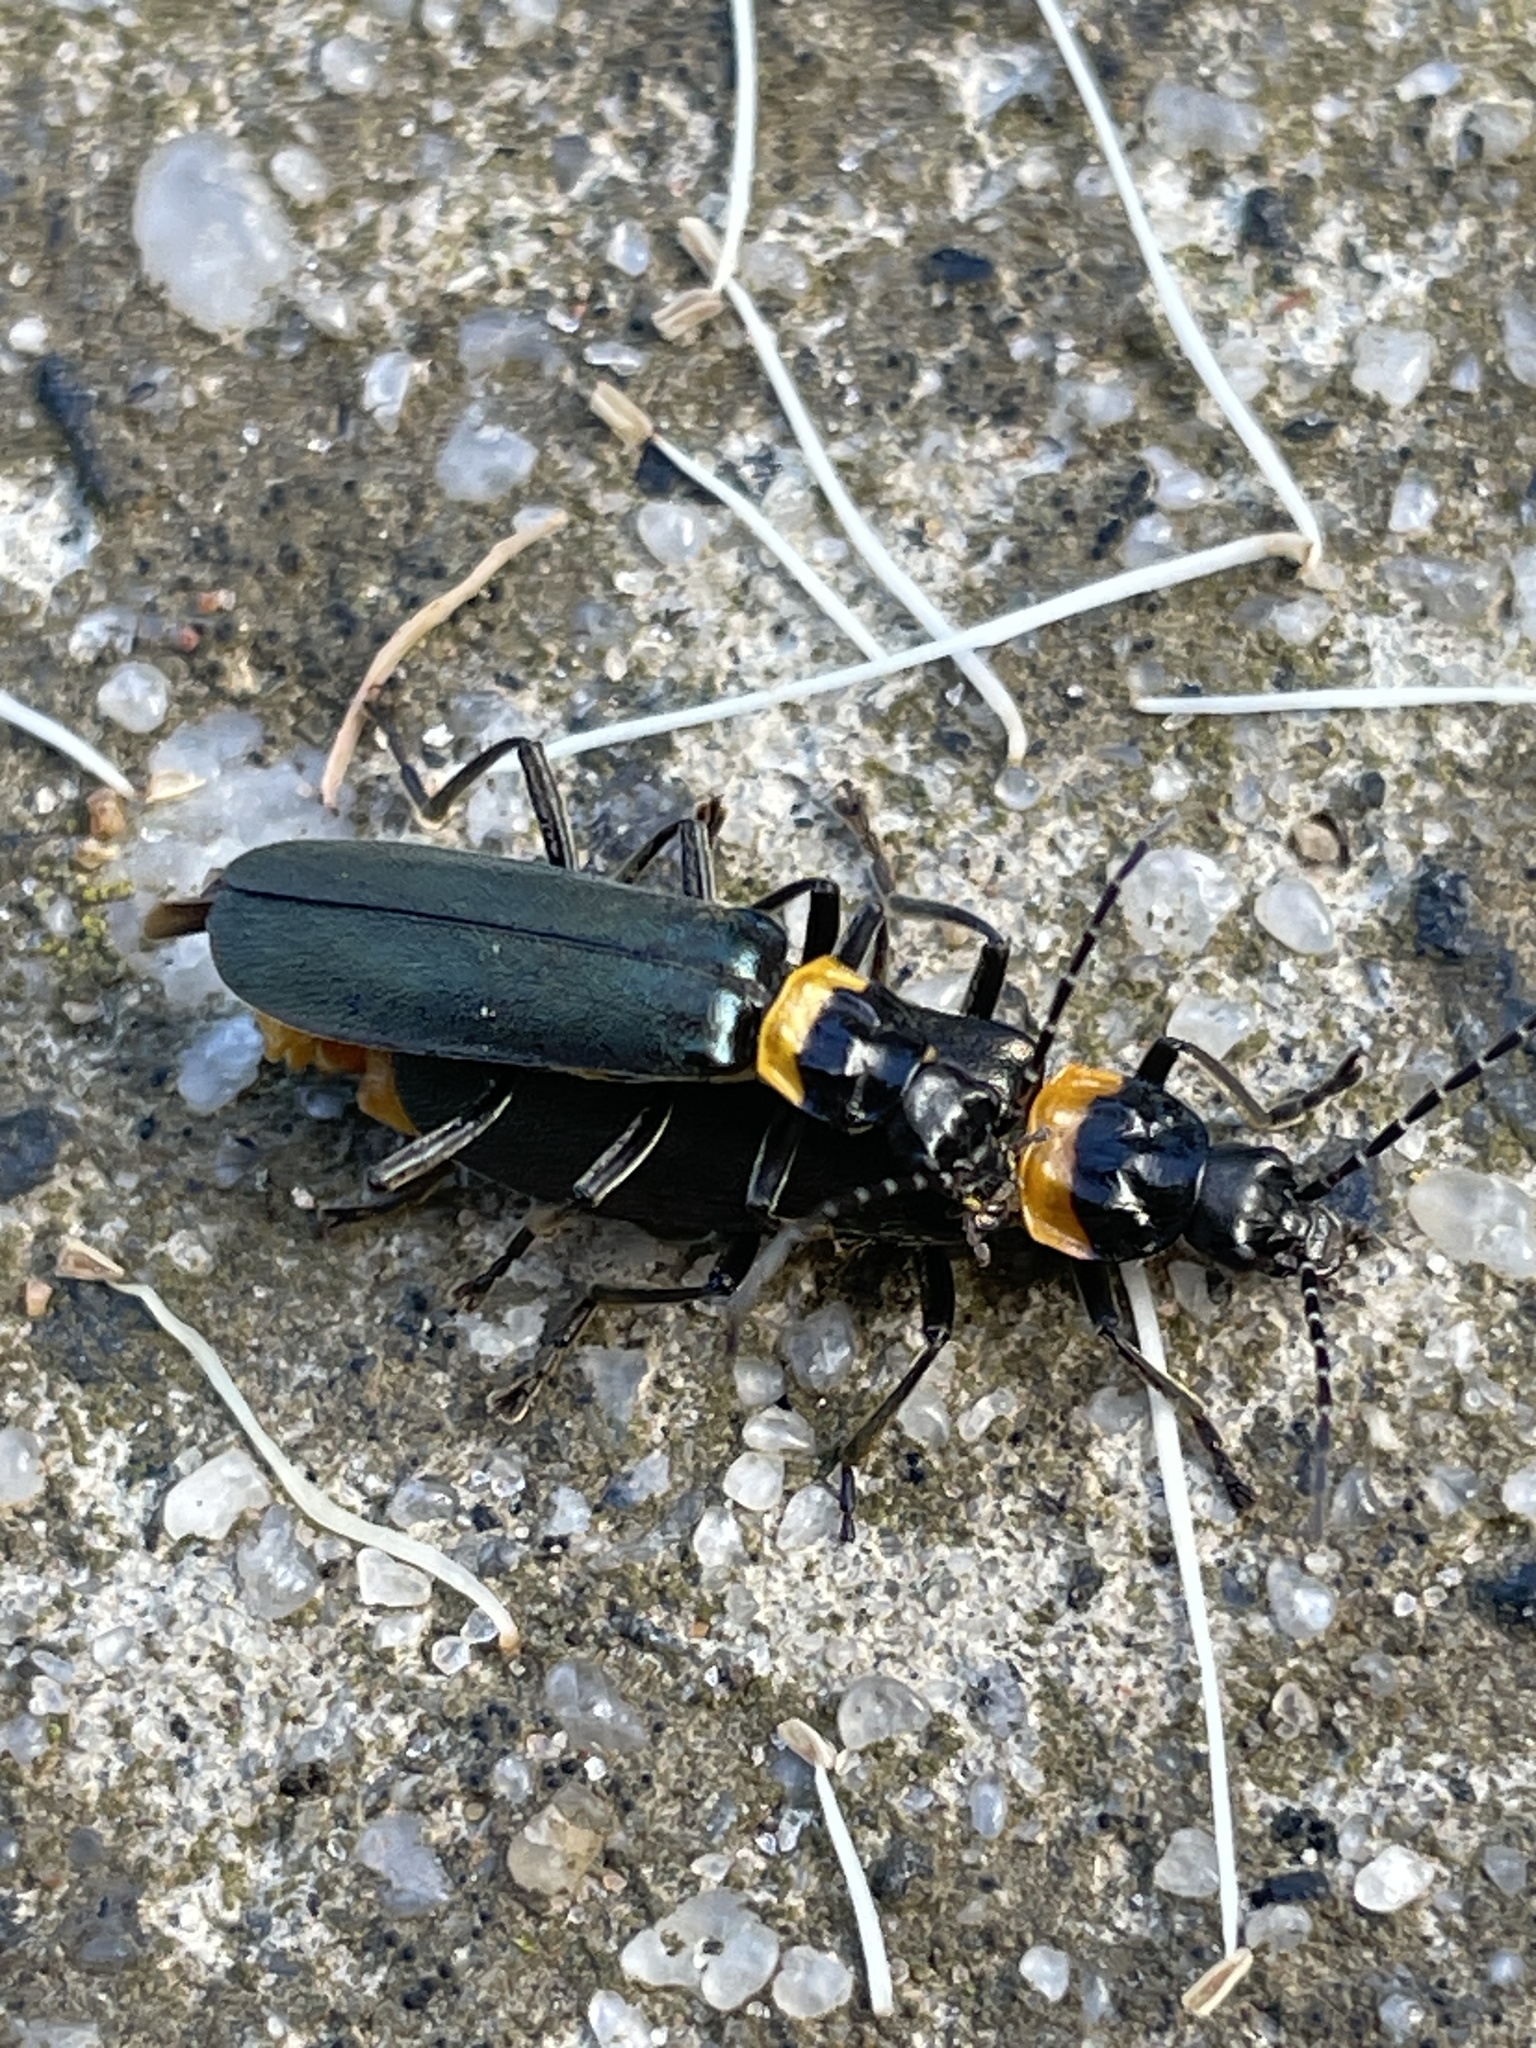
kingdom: Animalia
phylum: Arthropoda
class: Insecta
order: Coleoptera
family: Cantharidae
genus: Chauliognathus
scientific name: Chauliognathus
